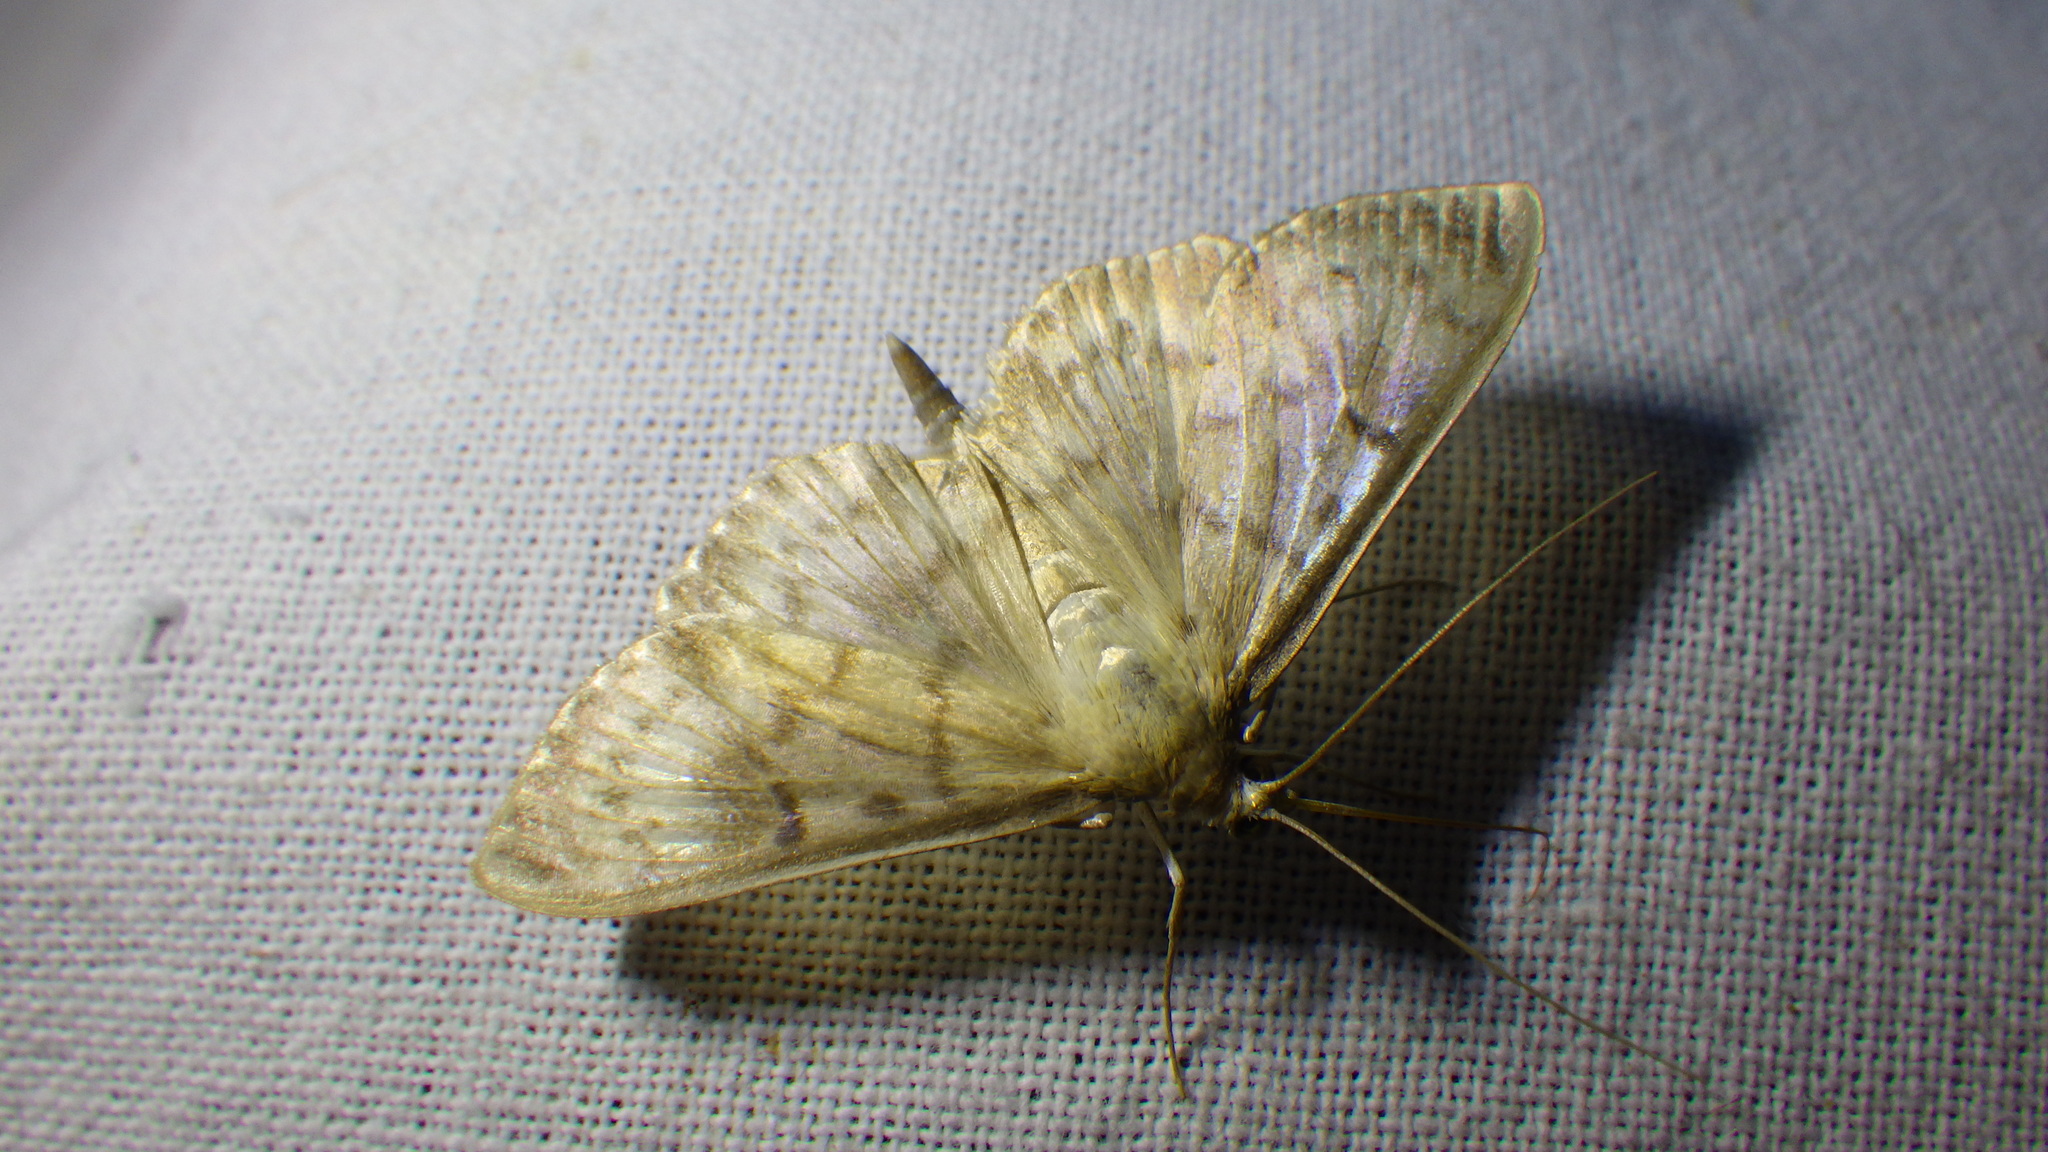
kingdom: Animalia
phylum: Arthropoda
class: Insecta
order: Lepidoptera
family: Crambidae
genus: Patania
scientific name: Patania ruralis
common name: Mother of pearl
